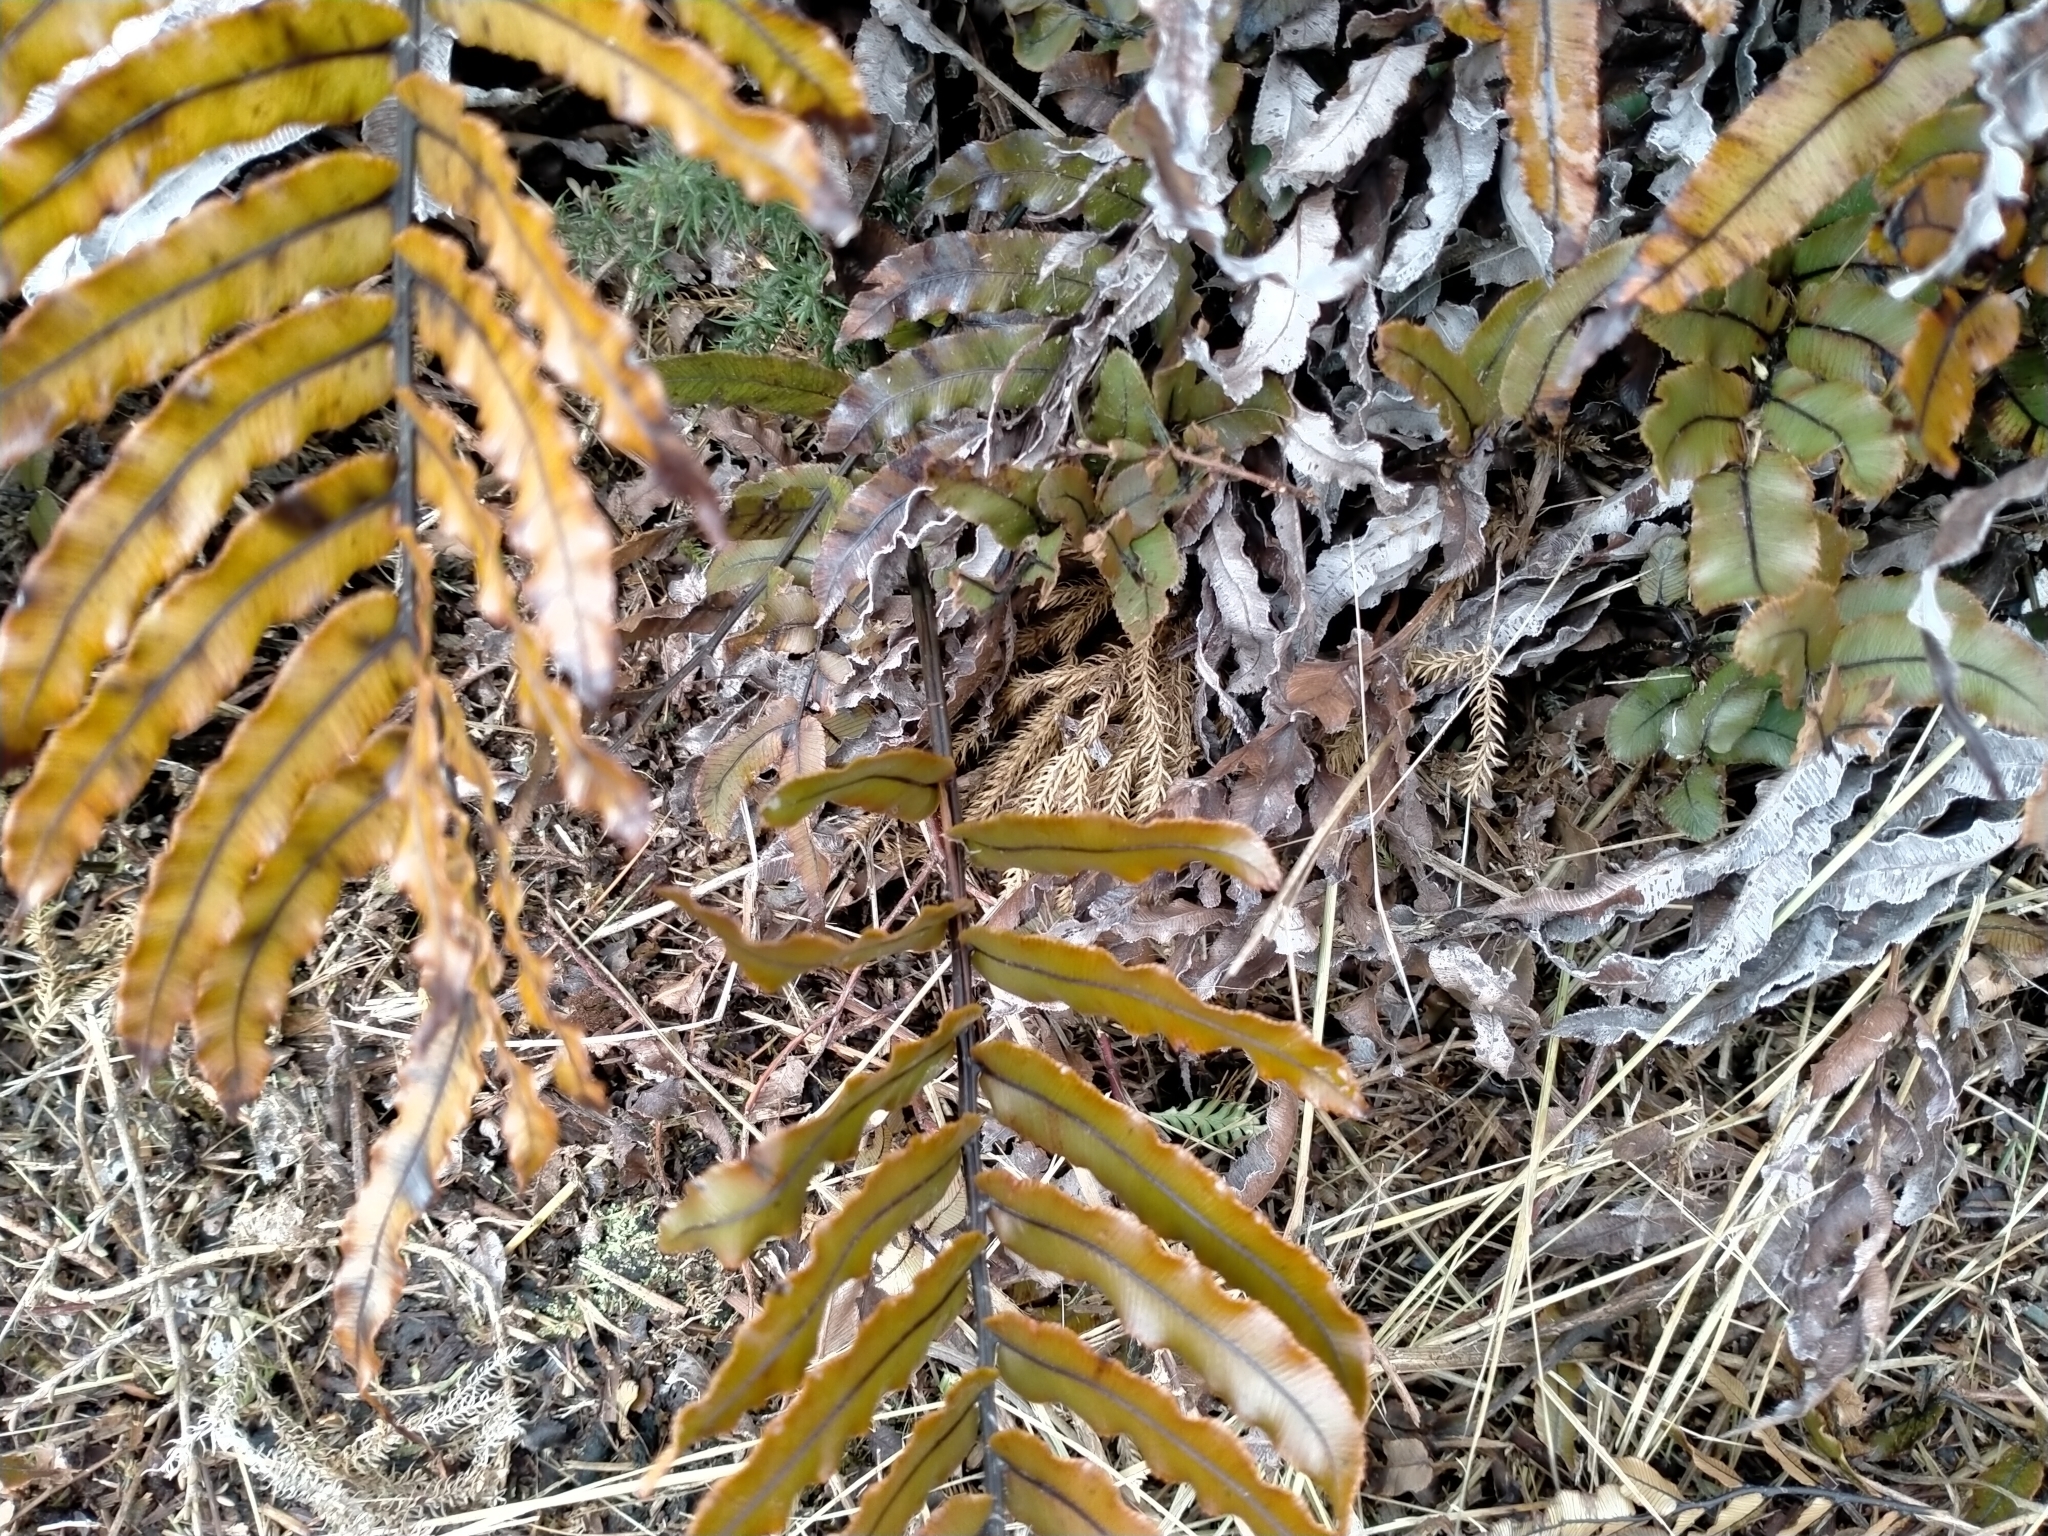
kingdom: Plantae
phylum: Tracheophyta
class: Polypodiopsida
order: Polypodiales
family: Blechnaceae
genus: Parablechnum
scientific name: Parablechnum montanum
